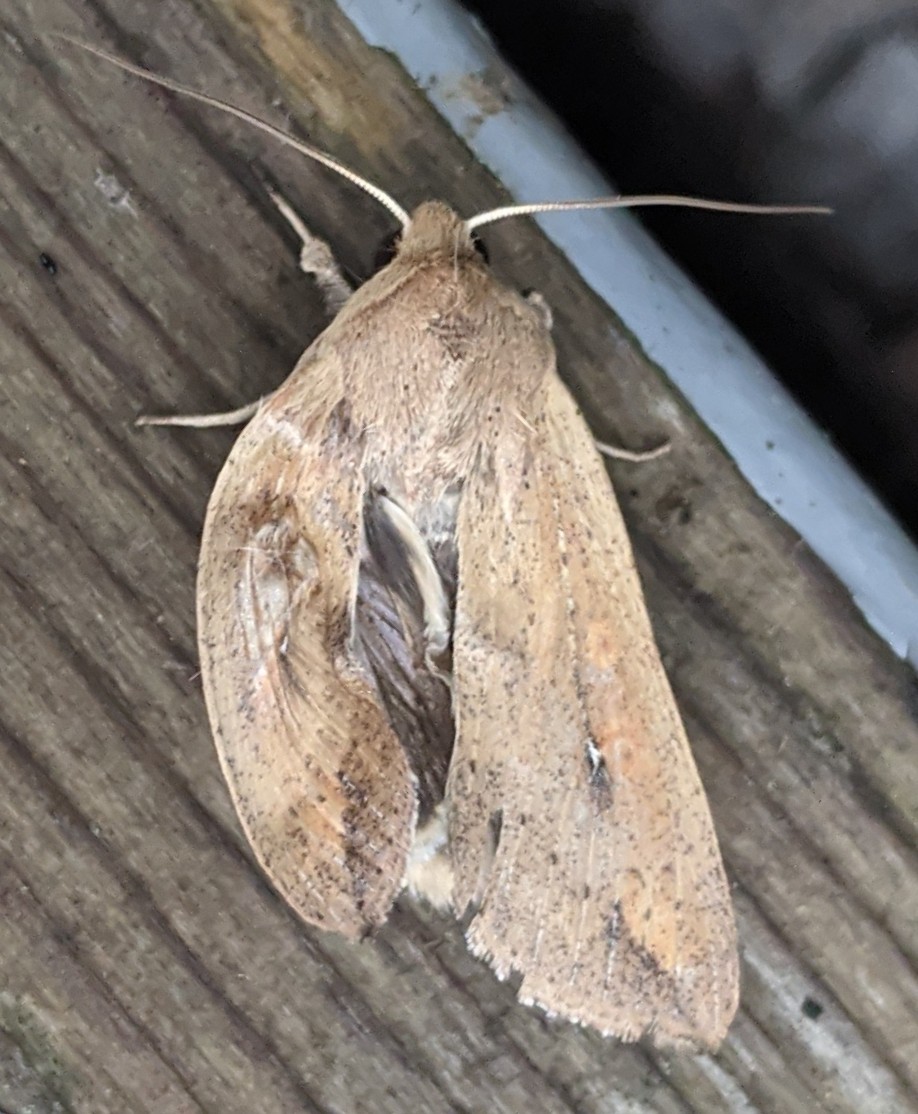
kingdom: Animalia
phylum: Arthropoda
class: Insecta
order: Lepidoptera
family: Noctuidae
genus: Mythimna
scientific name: Mythimna unipuncta
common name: White-speck
